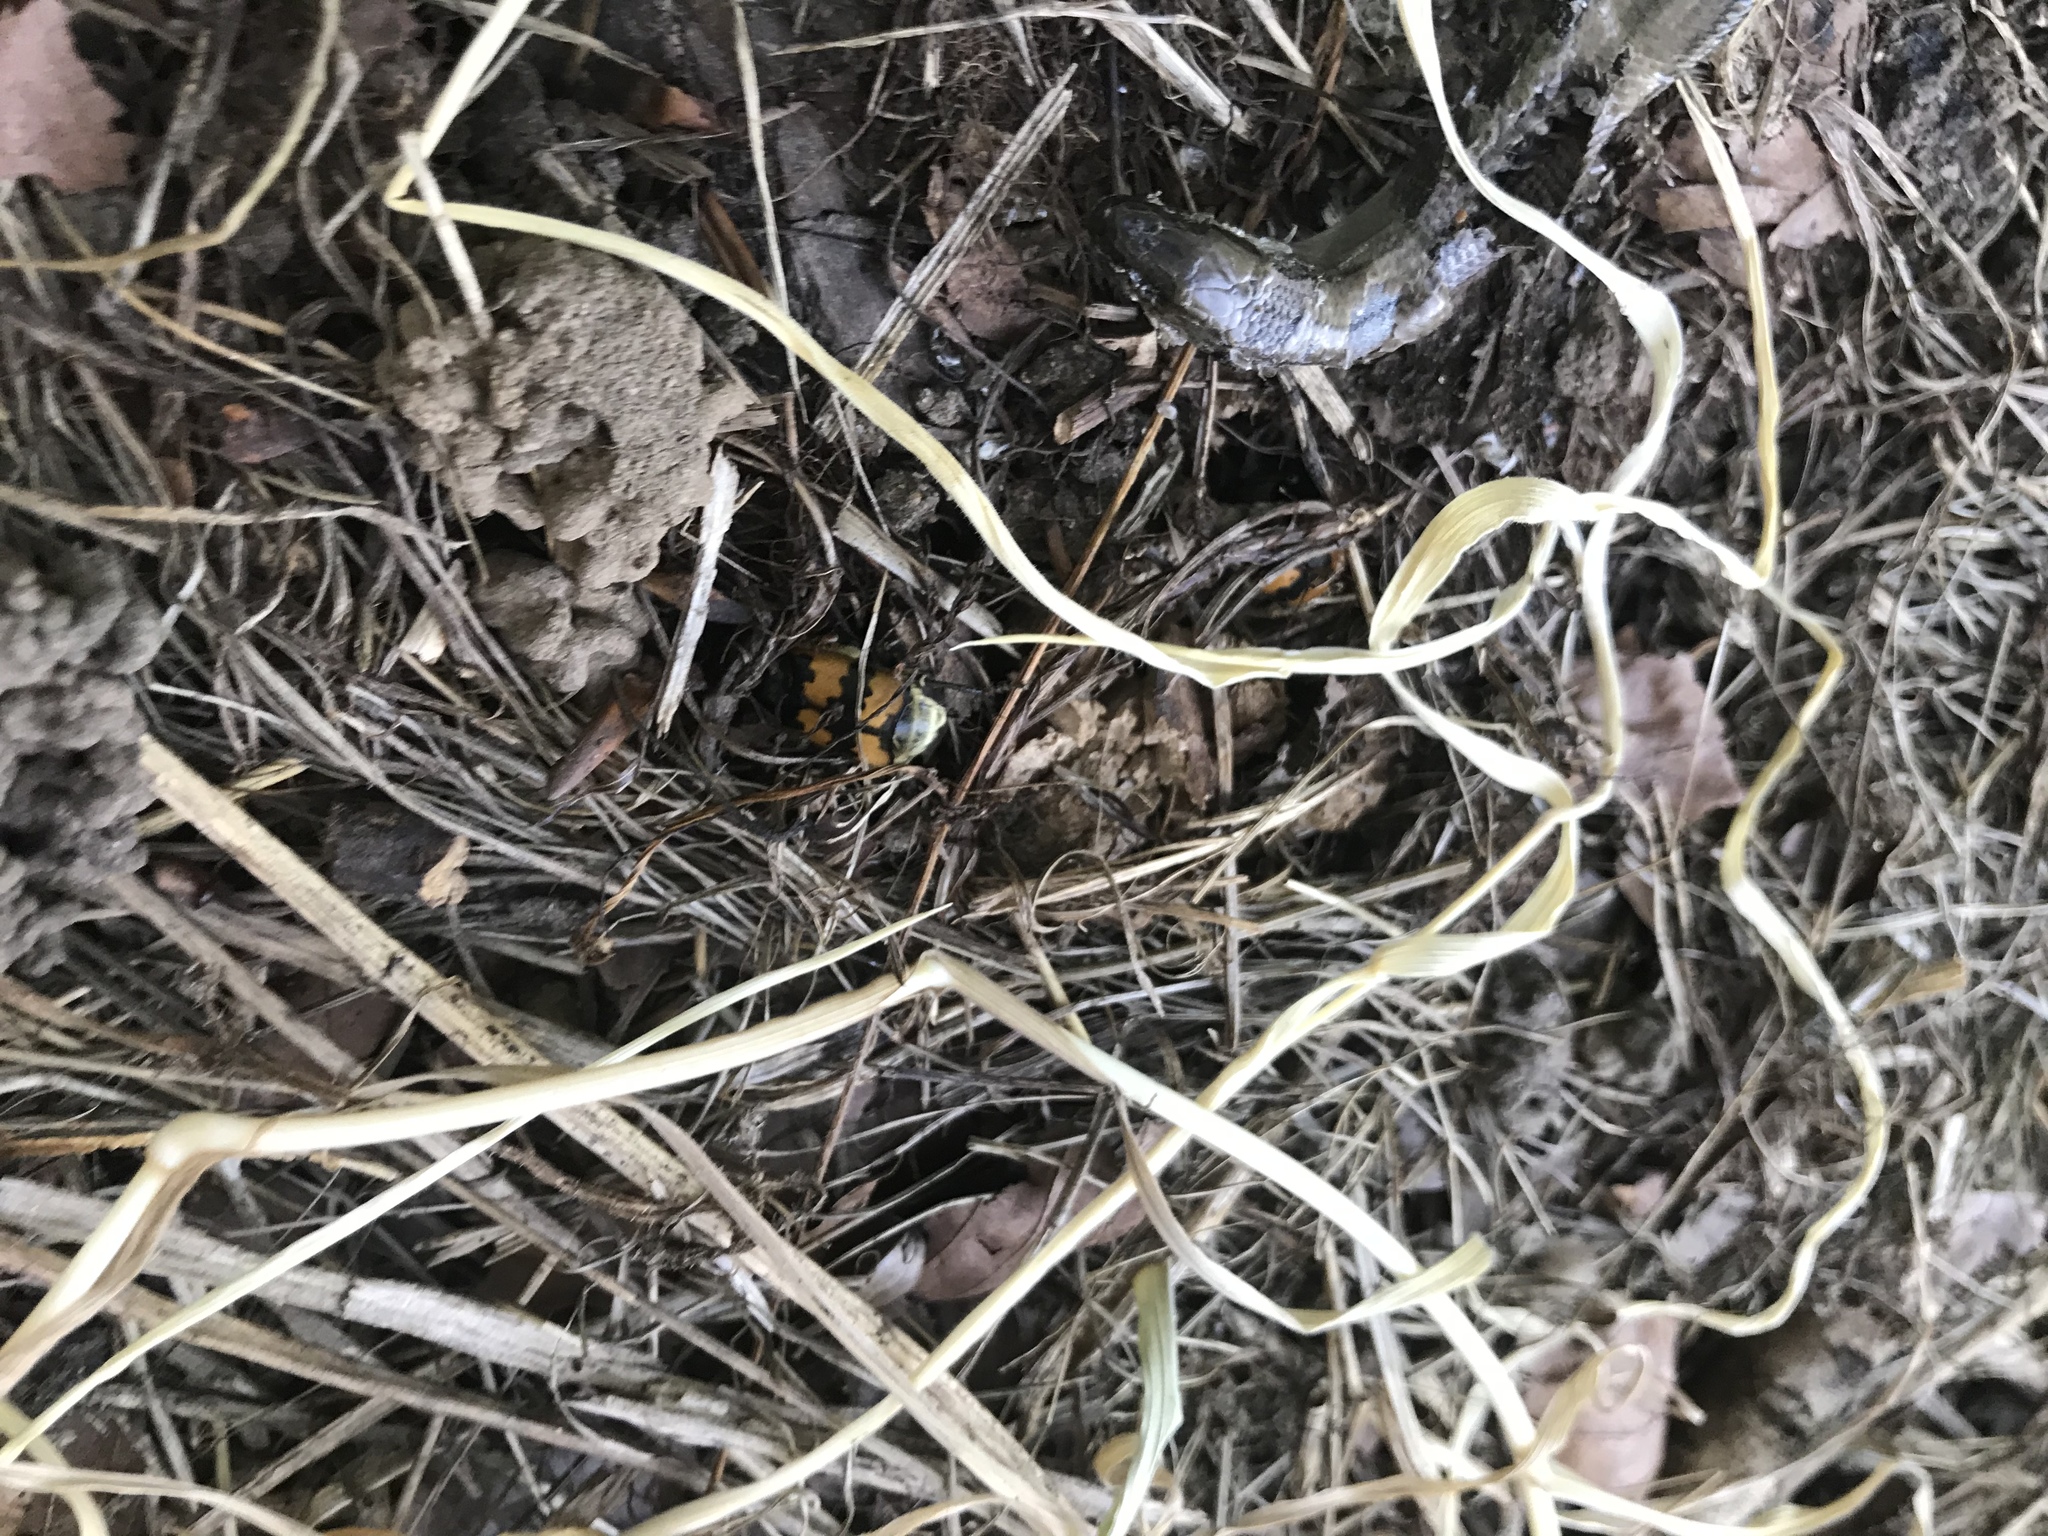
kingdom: Animalia
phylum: Arthropoda
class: Insecta
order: Coleoptera
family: Staphylinidae
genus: Nicrophorus
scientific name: Nicrophorus vespillo
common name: Common burying beetle
